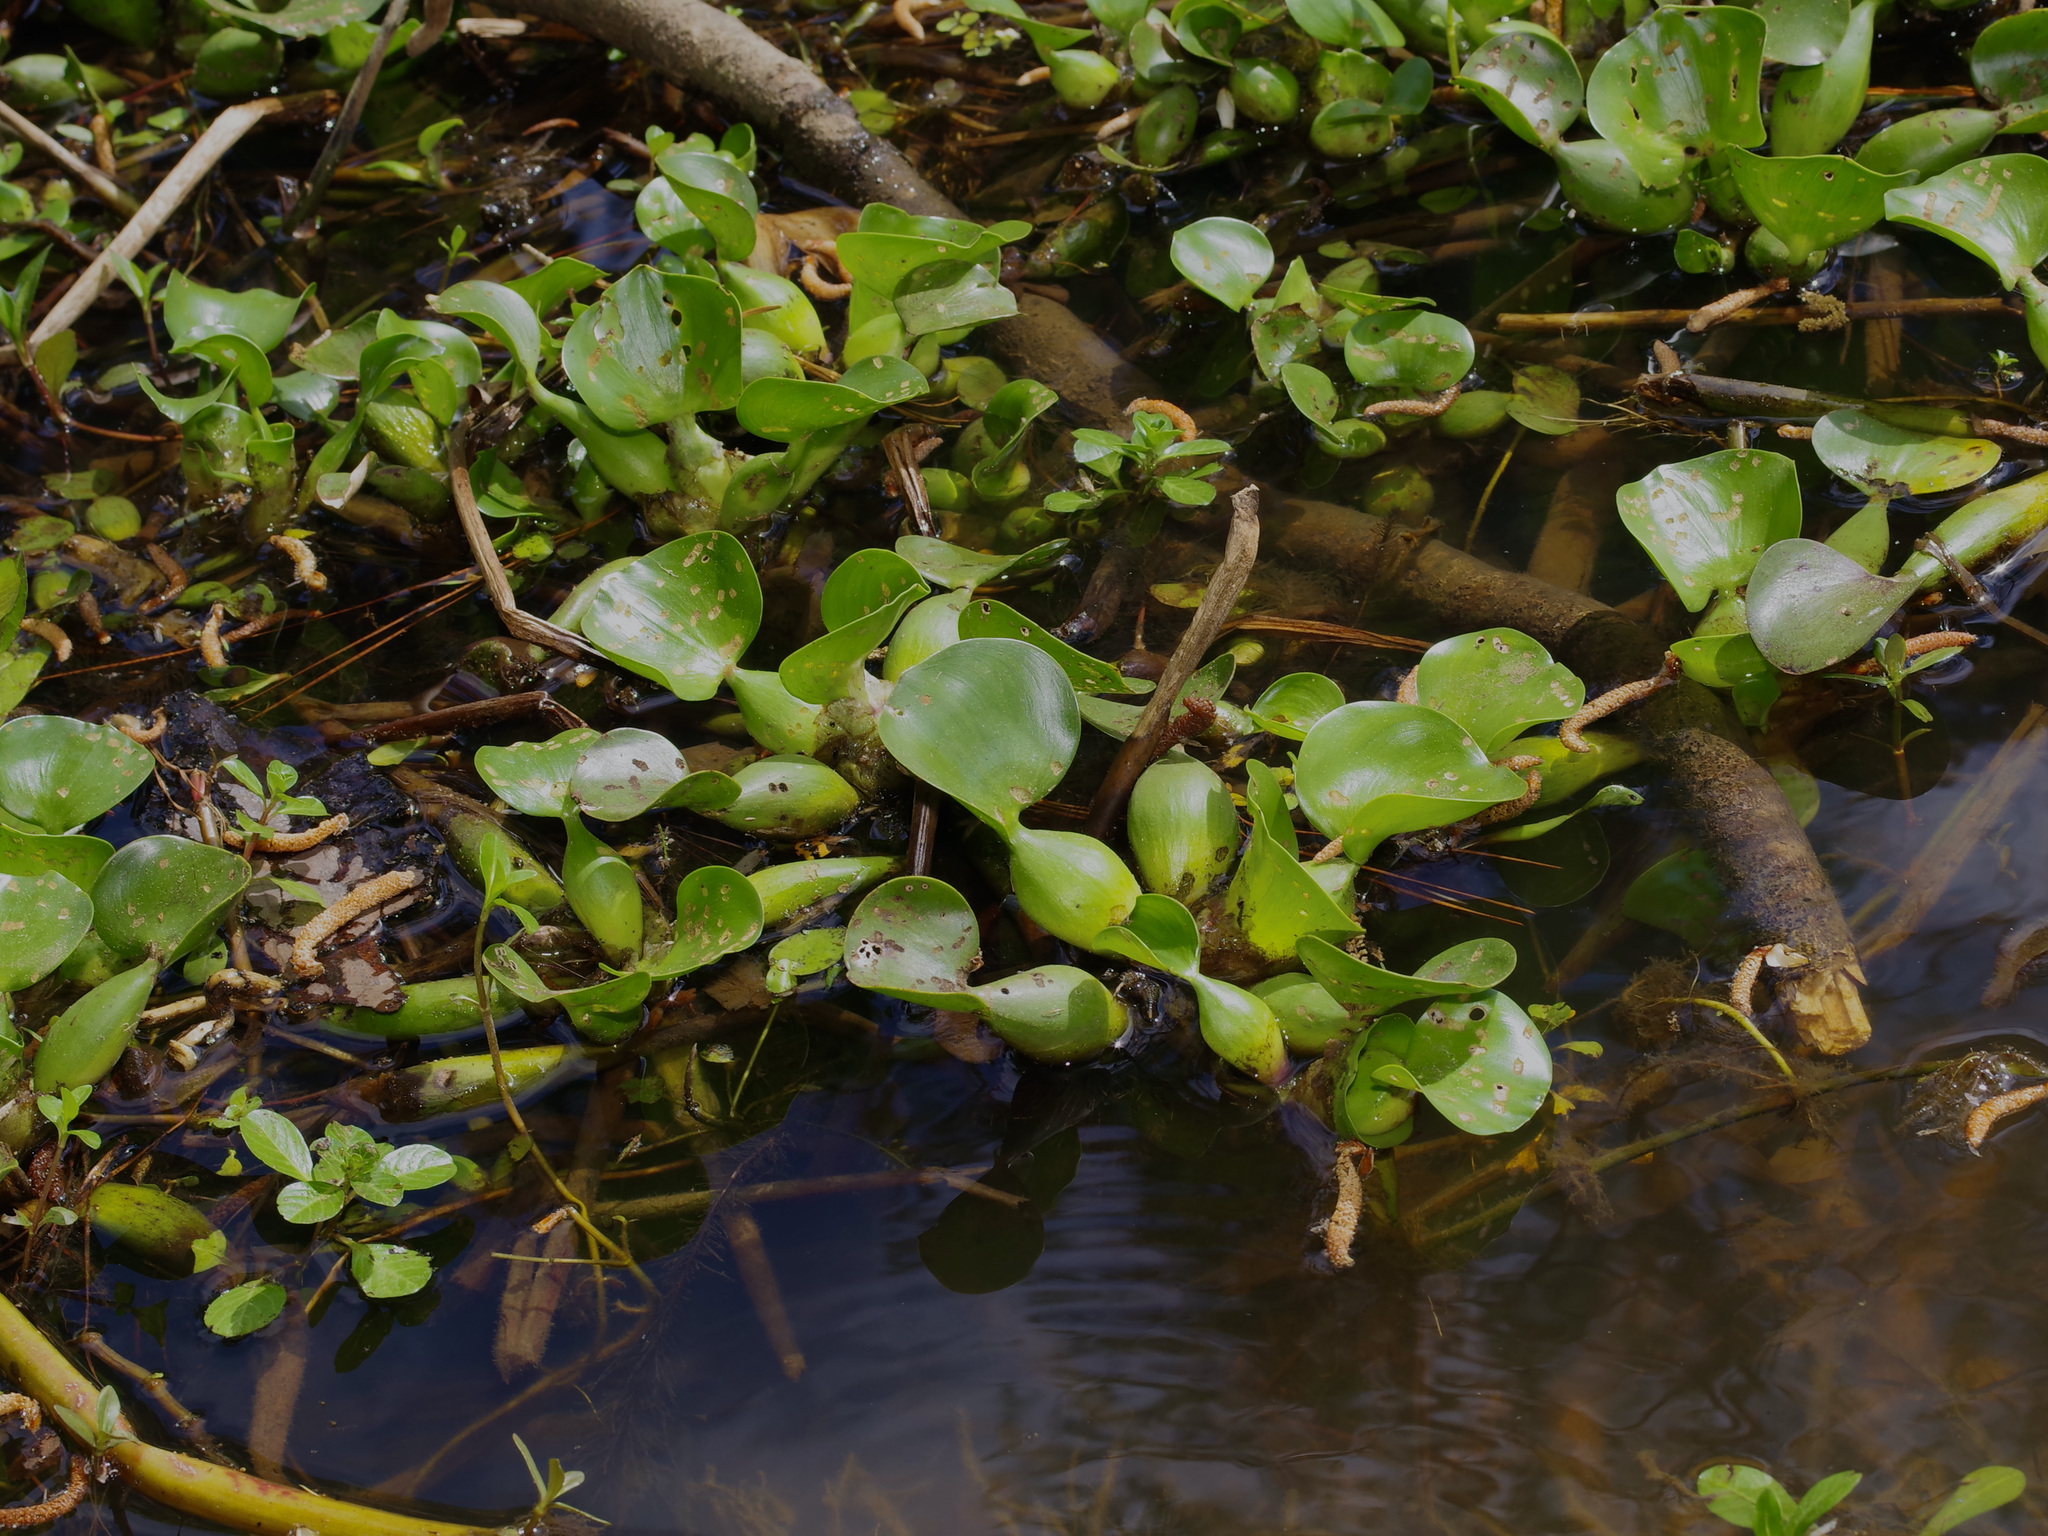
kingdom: Plantae
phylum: Tracheophyta
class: Liliopsida
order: Commelinales
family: Pontederiaceae
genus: Pontederia
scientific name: Pontederia crassipes
